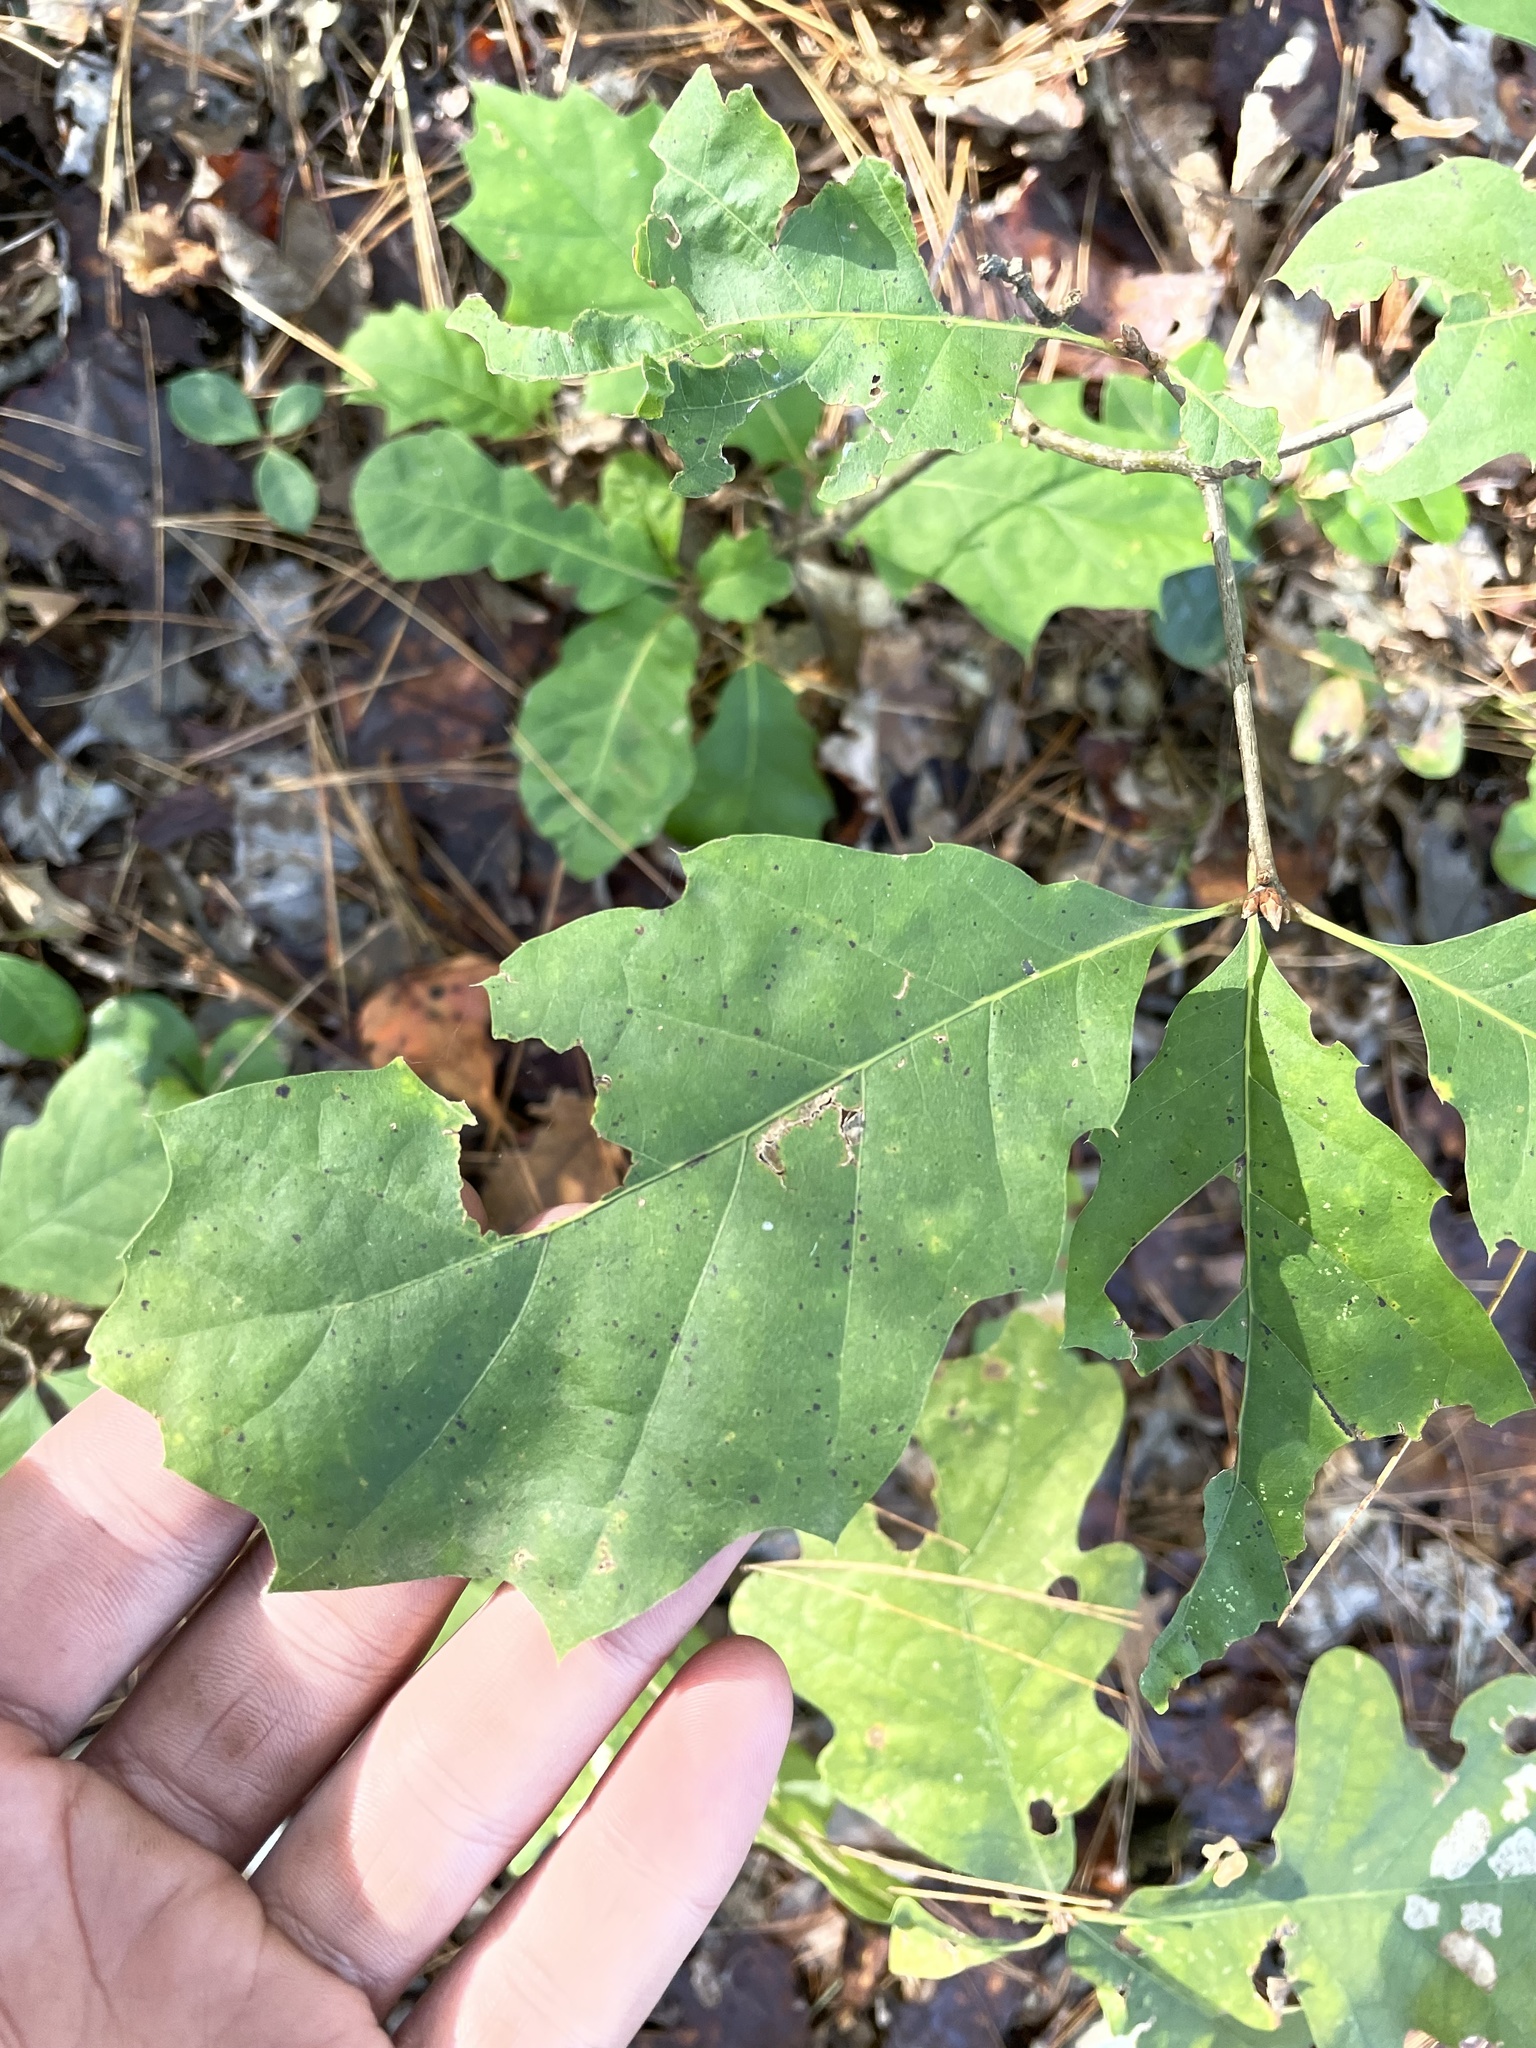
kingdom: Plantae
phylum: Tracheophyta
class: Magnoliopsida
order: Fagales
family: Fagaceae
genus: Quercus
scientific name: Quercus rubra
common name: Red oak
